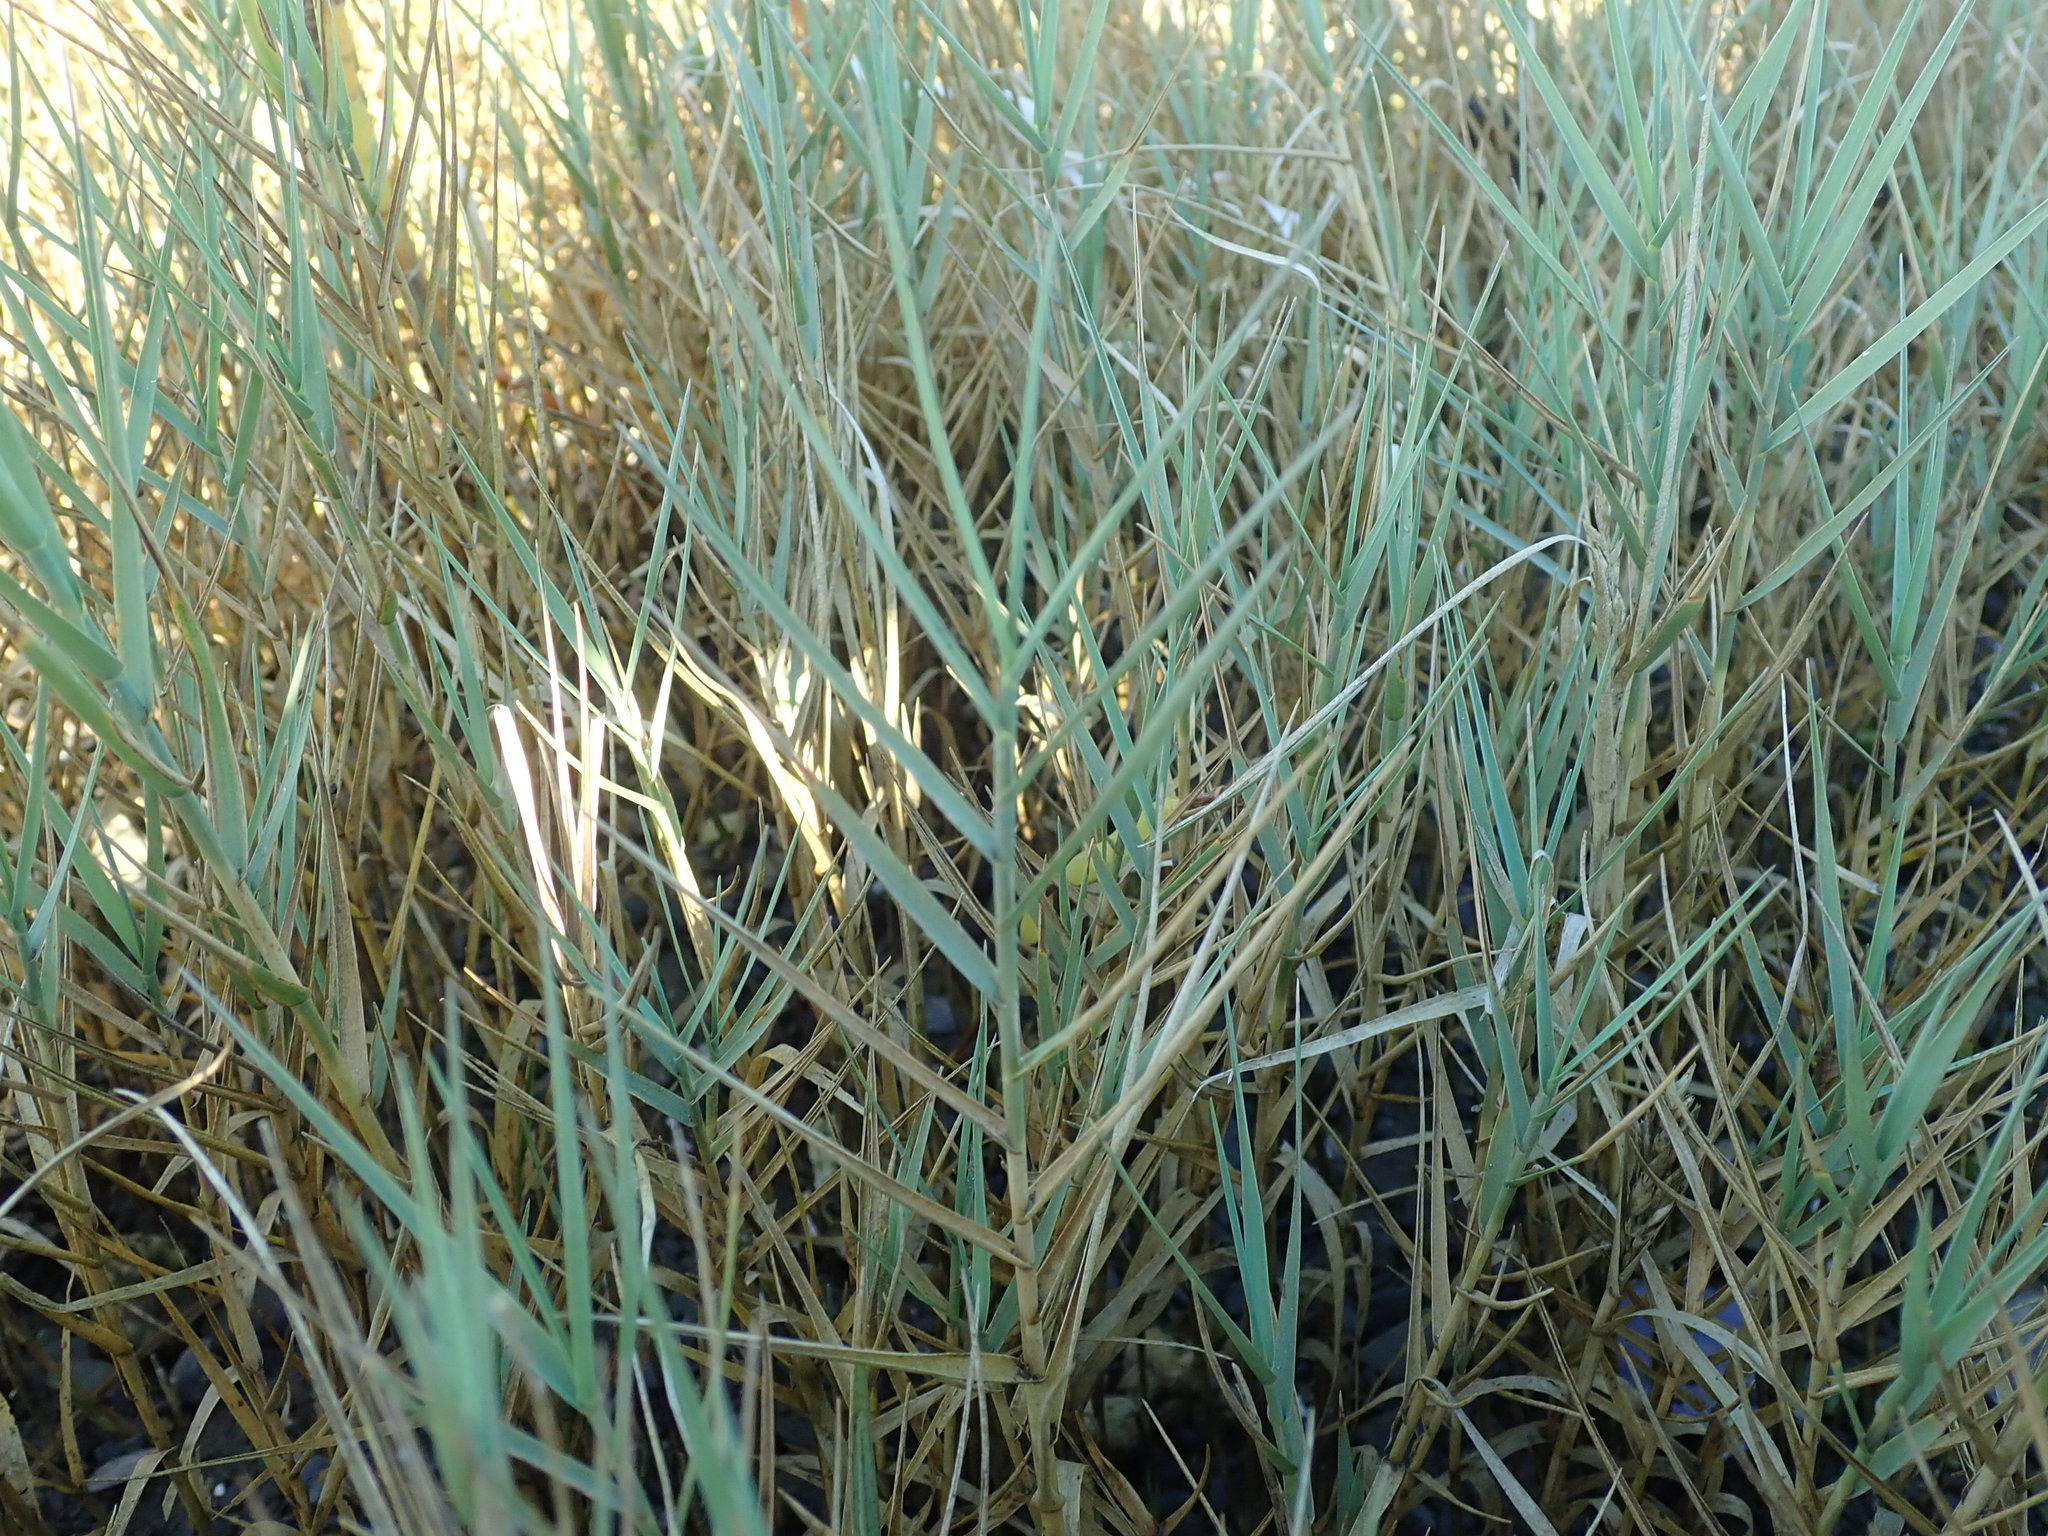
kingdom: Plantae
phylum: Tracheophyta
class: Liliopsida
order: Poales
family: Poaceae
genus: Distichlis
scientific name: Distichlis spicata
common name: Saltgrass
